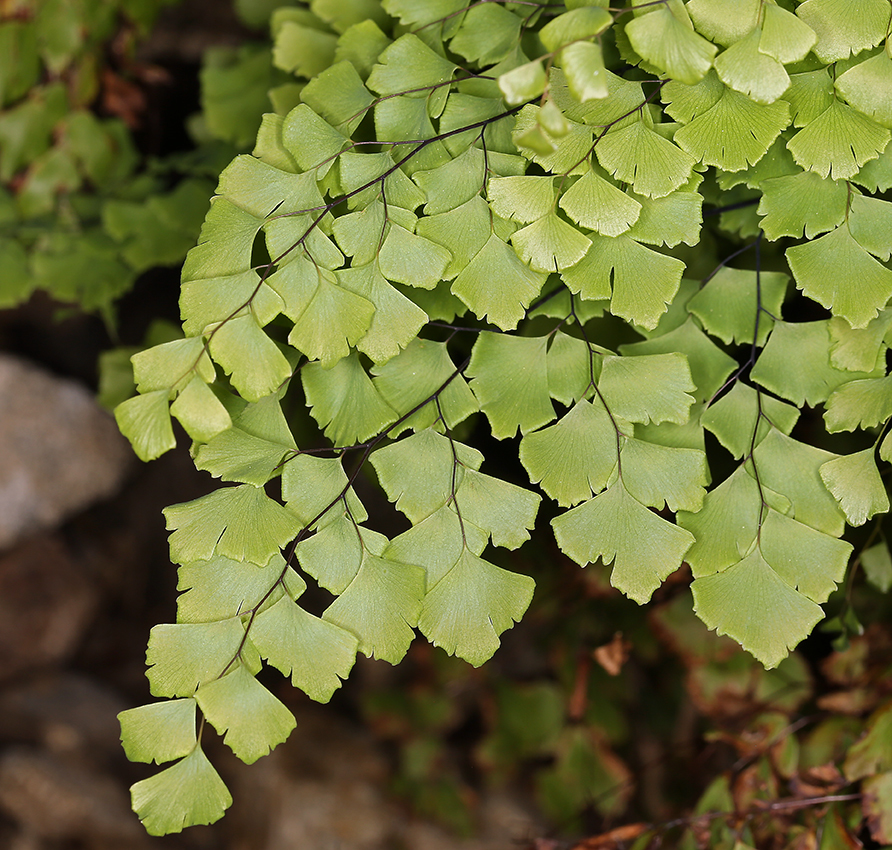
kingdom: Plantae
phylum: Tracheophyta
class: Polypodiopsida
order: Polypodiales
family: Pteridaceae
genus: Adiantum
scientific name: Adiantum shastense
